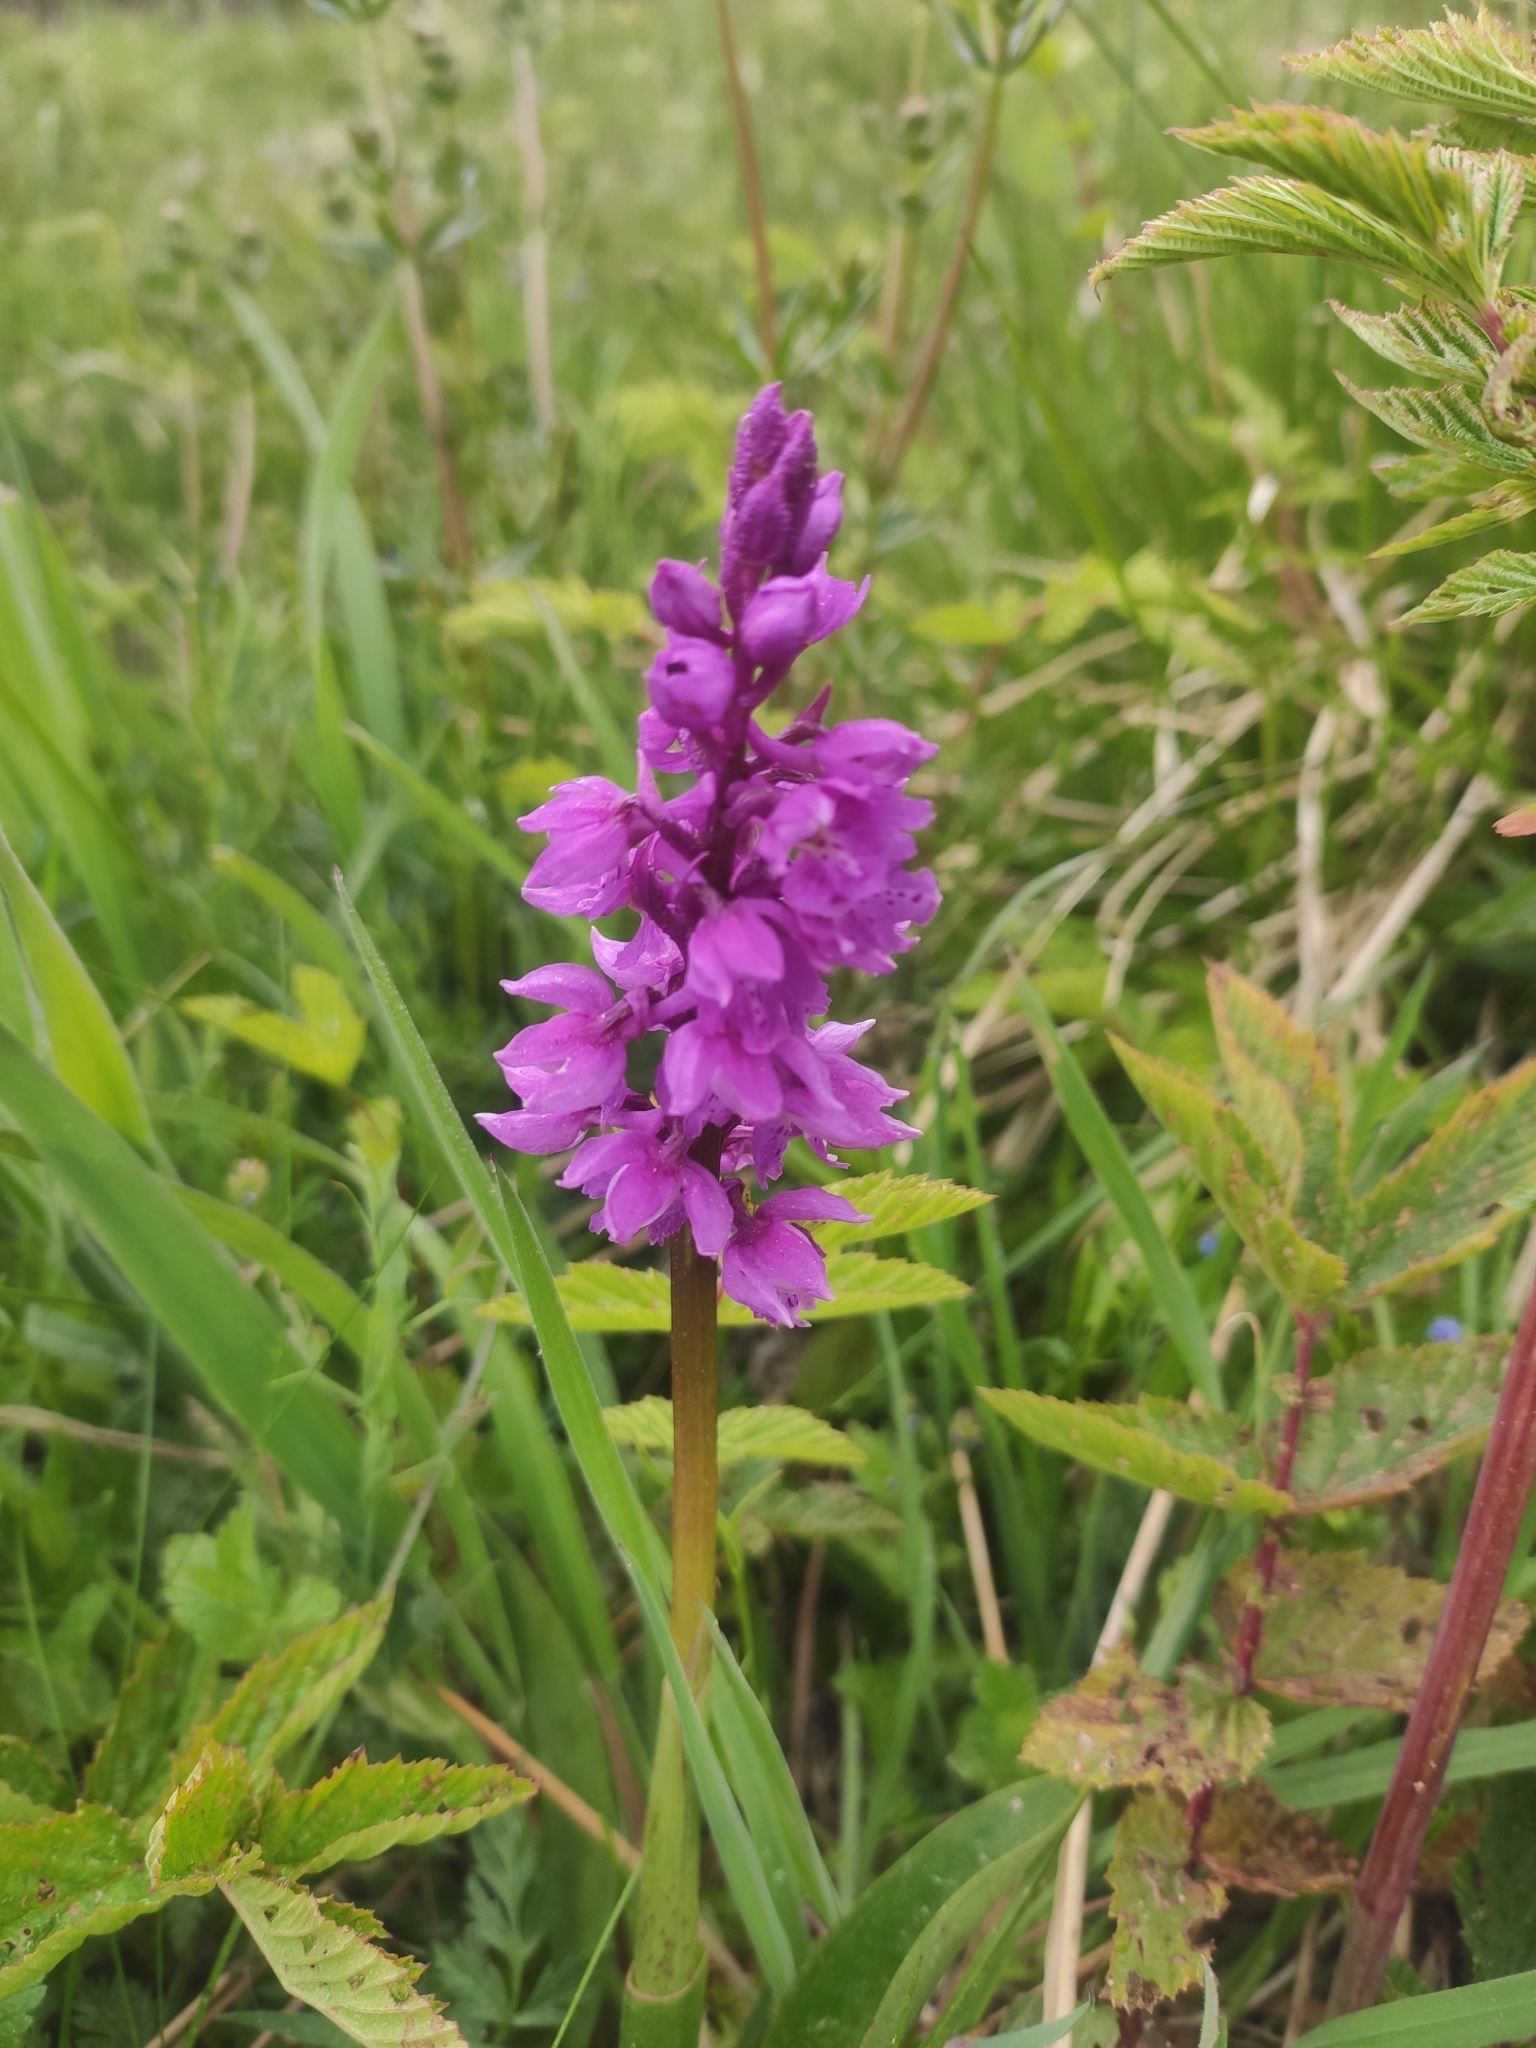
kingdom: Plantae
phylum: Tracheophyta
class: Liliopsida
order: Asparagales
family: Orchidaceae
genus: Orchis
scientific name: Orchis mascula
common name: Early-purple orchid
